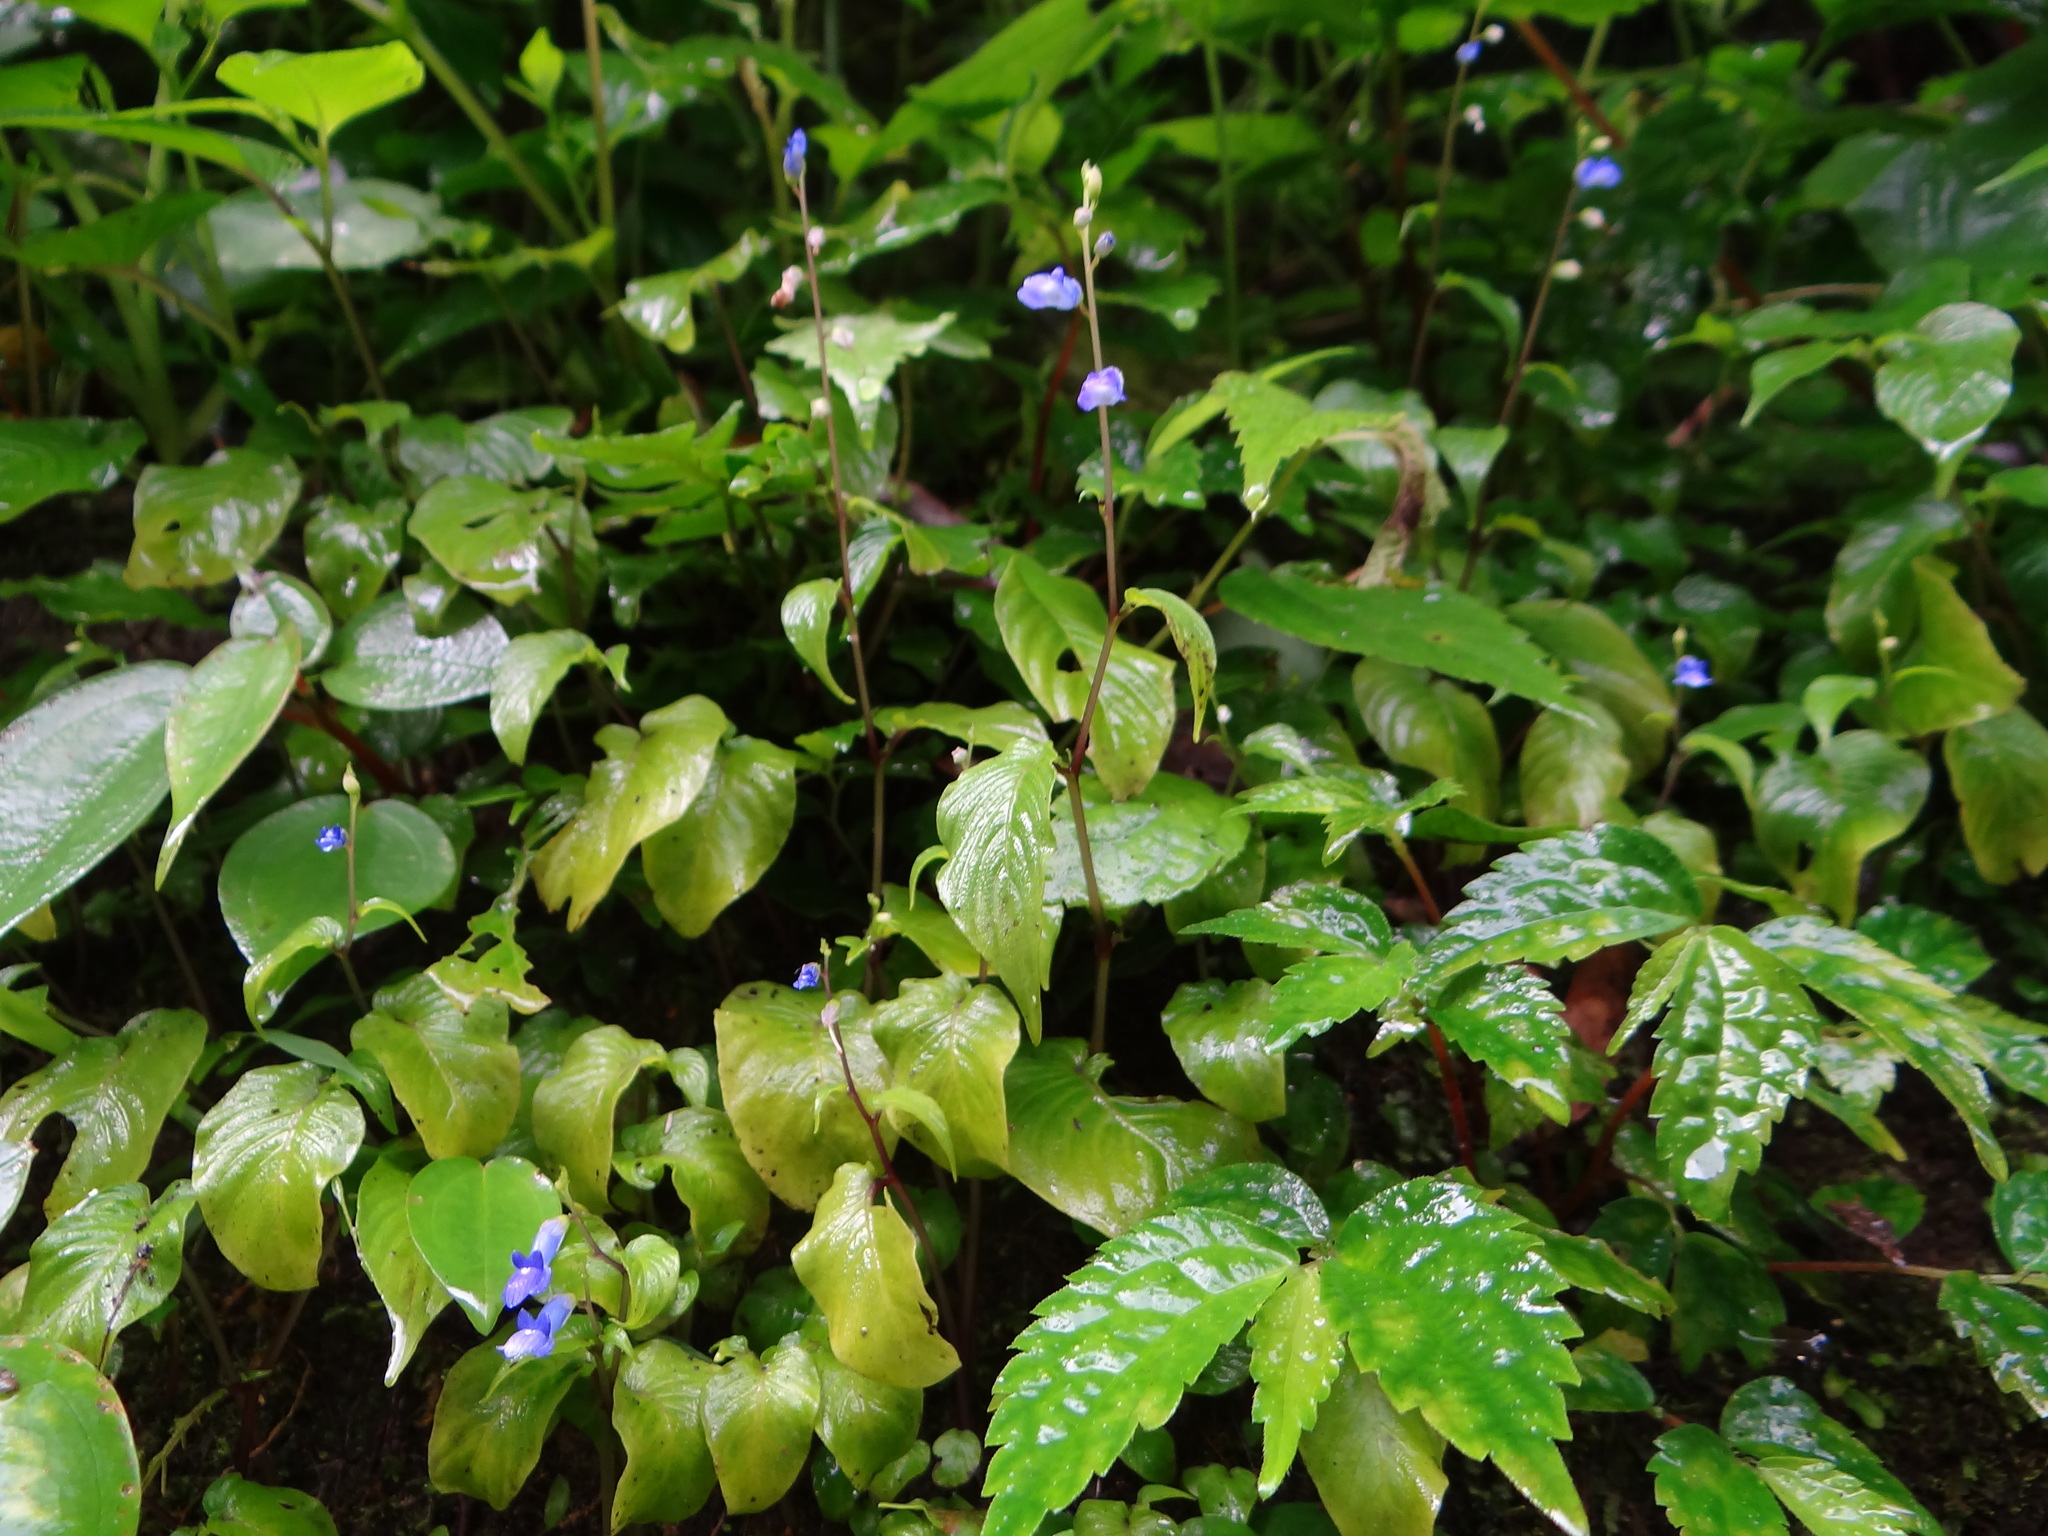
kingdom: Plantae
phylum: Tracheophyta
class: Magnoliopsida
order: Lamiales
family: Gesneriaceae
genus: Rhynchoglossum
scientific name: Rhynchoglossum obliquum
